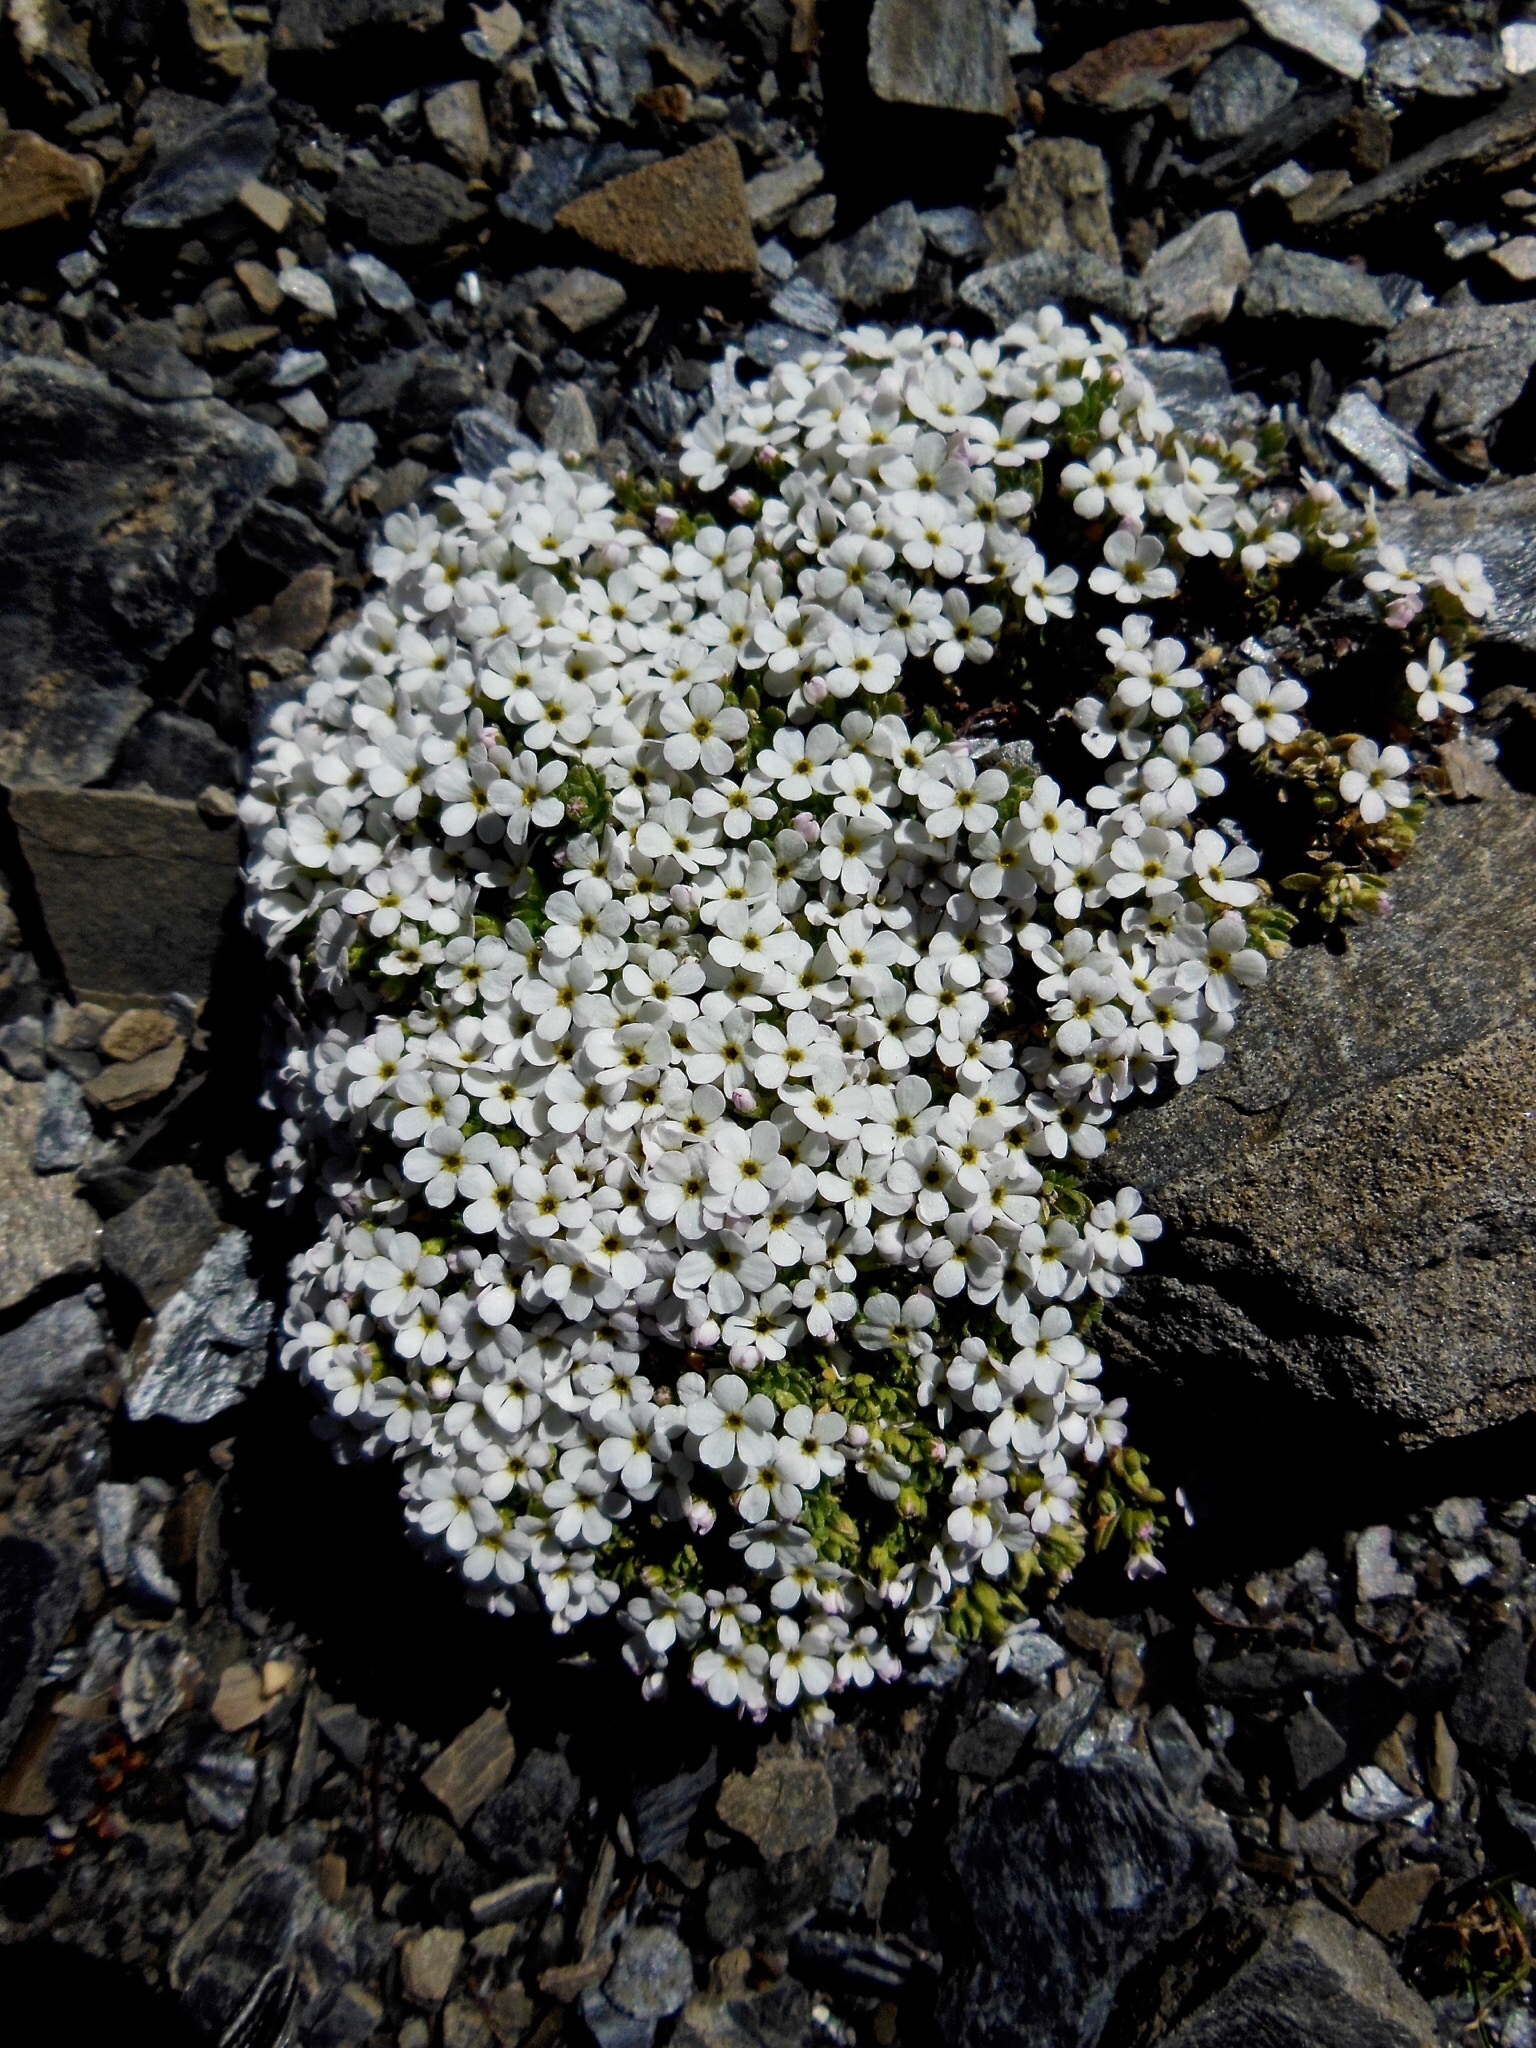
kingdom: Plantae
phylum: Tracheophyta
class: Magnoliopsida
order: Ericales
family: Primulaceae
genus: Androsace
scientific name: Androsace alpina
